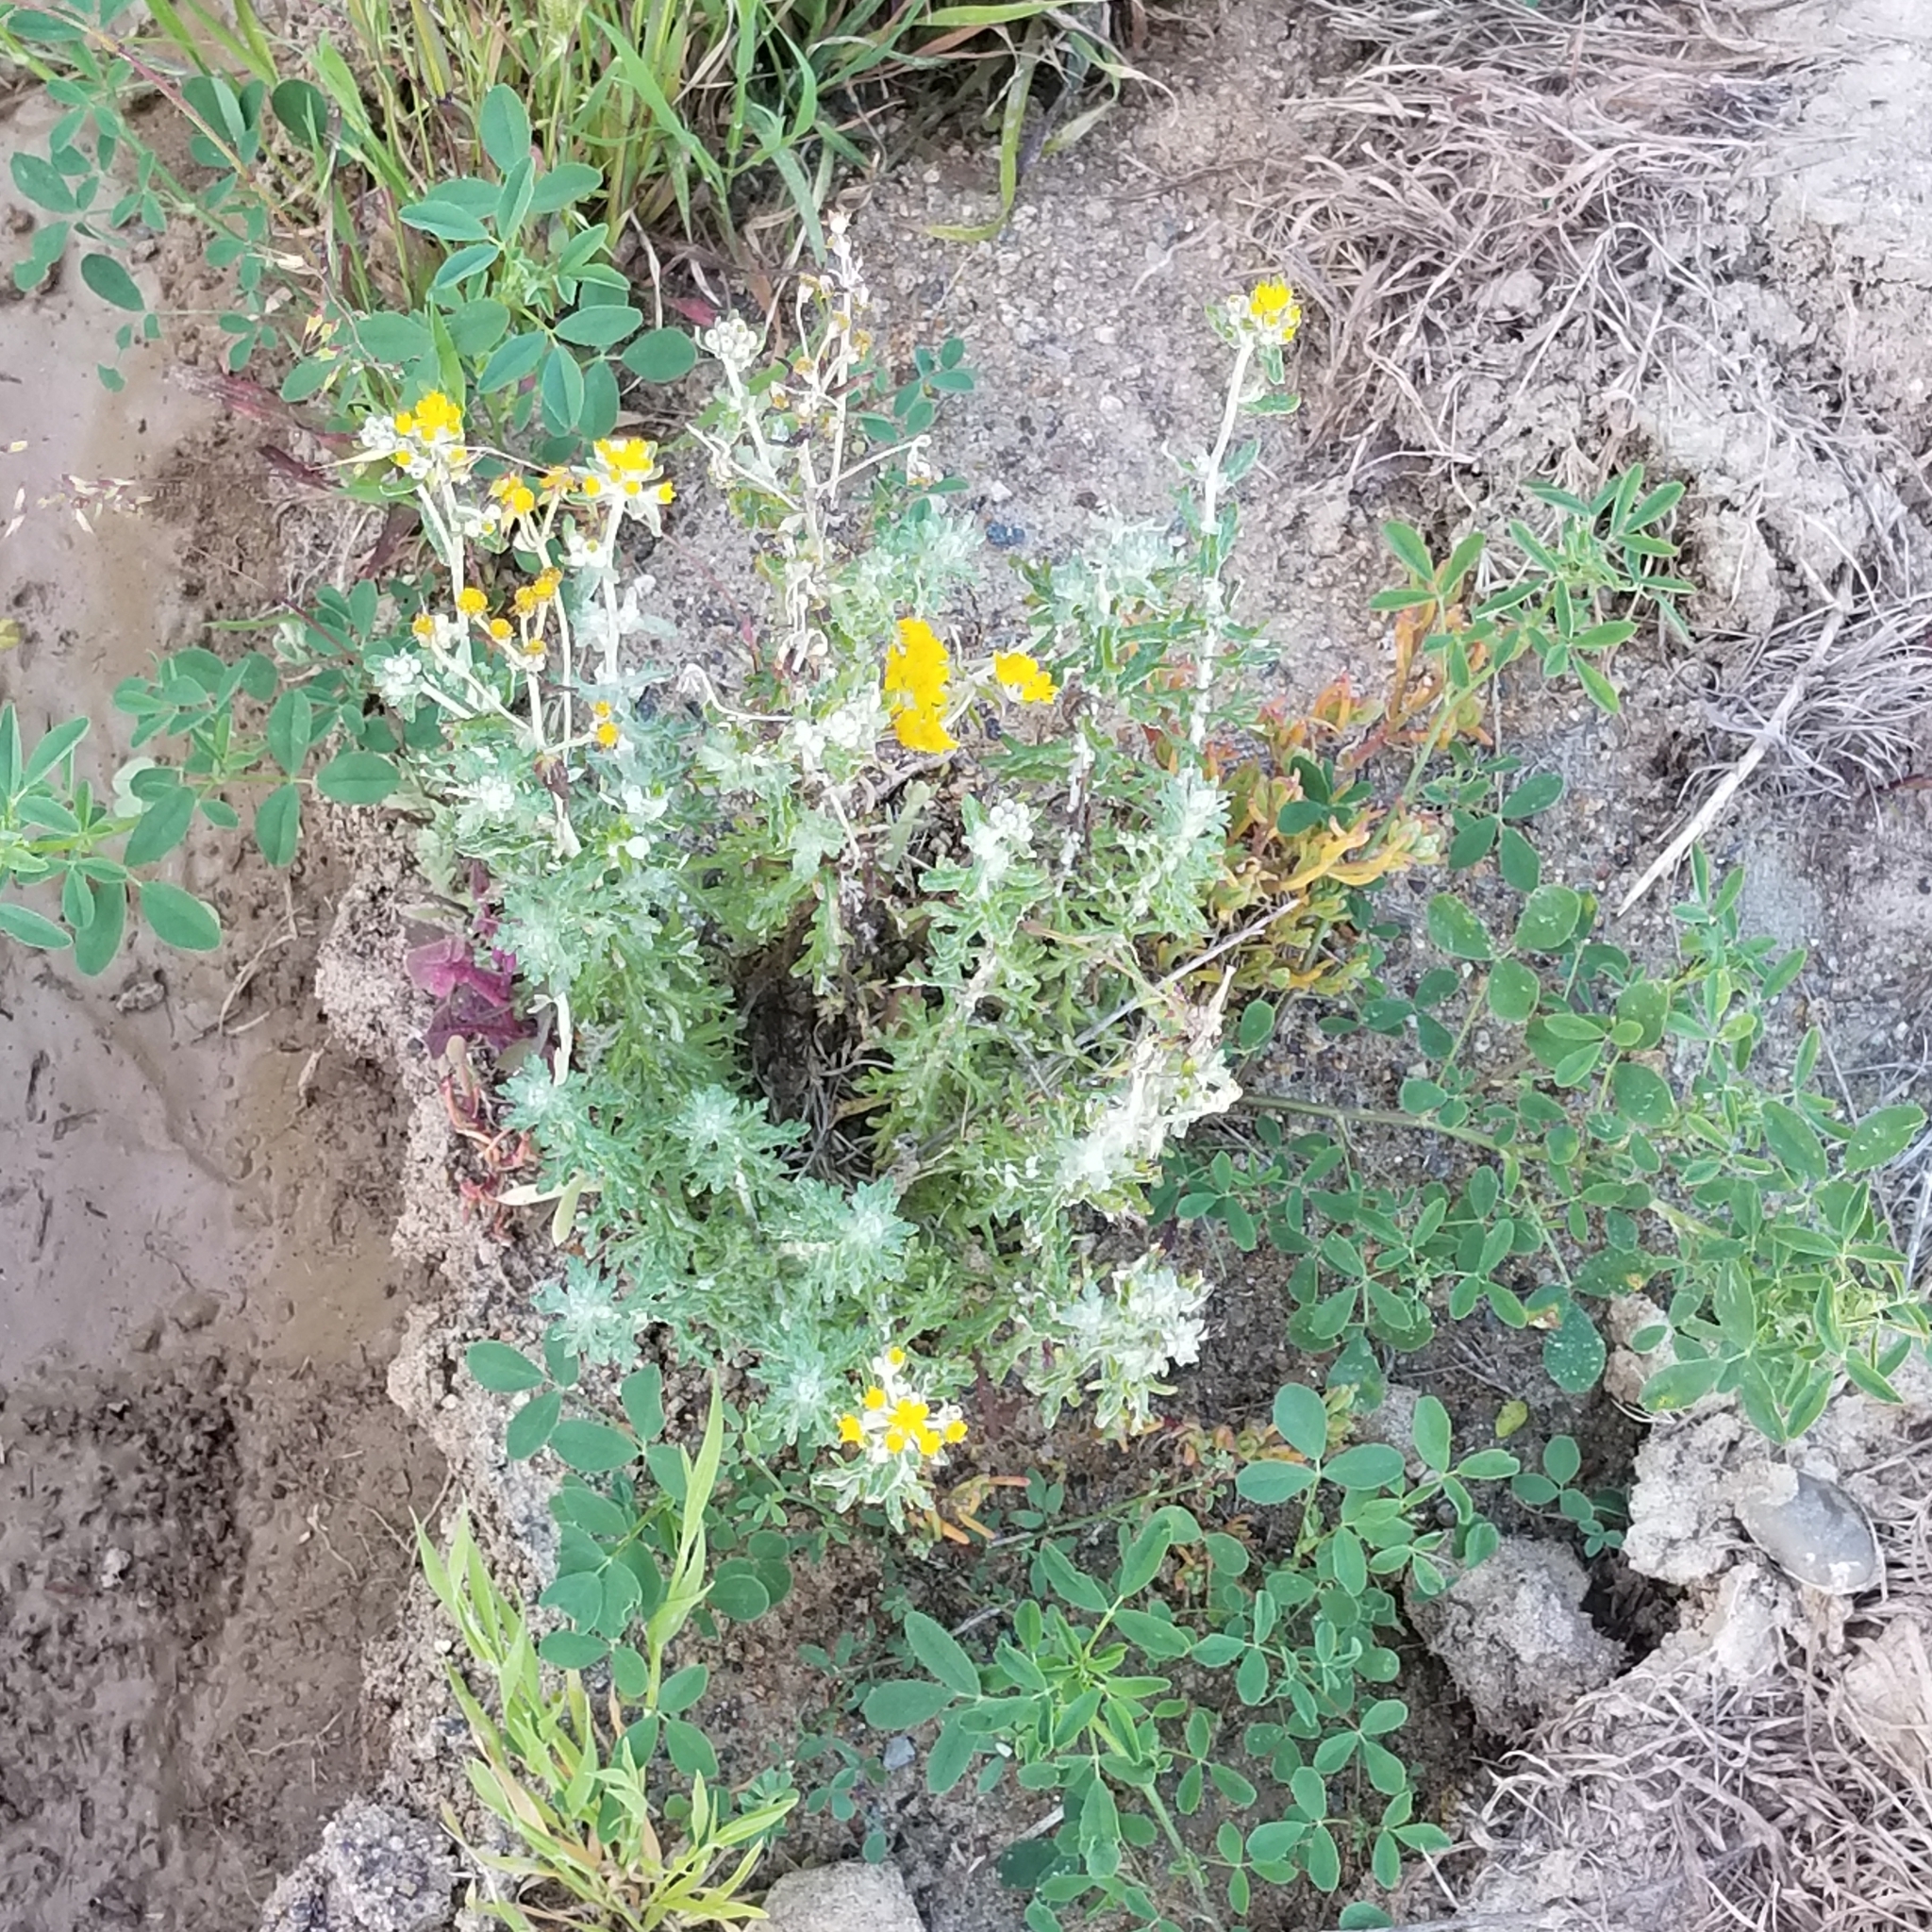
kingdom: Plantae
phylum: Tracheophyta
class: Magnoliopsida
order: Asterales
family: Asteraceae
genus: Eriophyllum
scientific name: Eriophyllum confertiflorum
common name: Golden-yarrow
